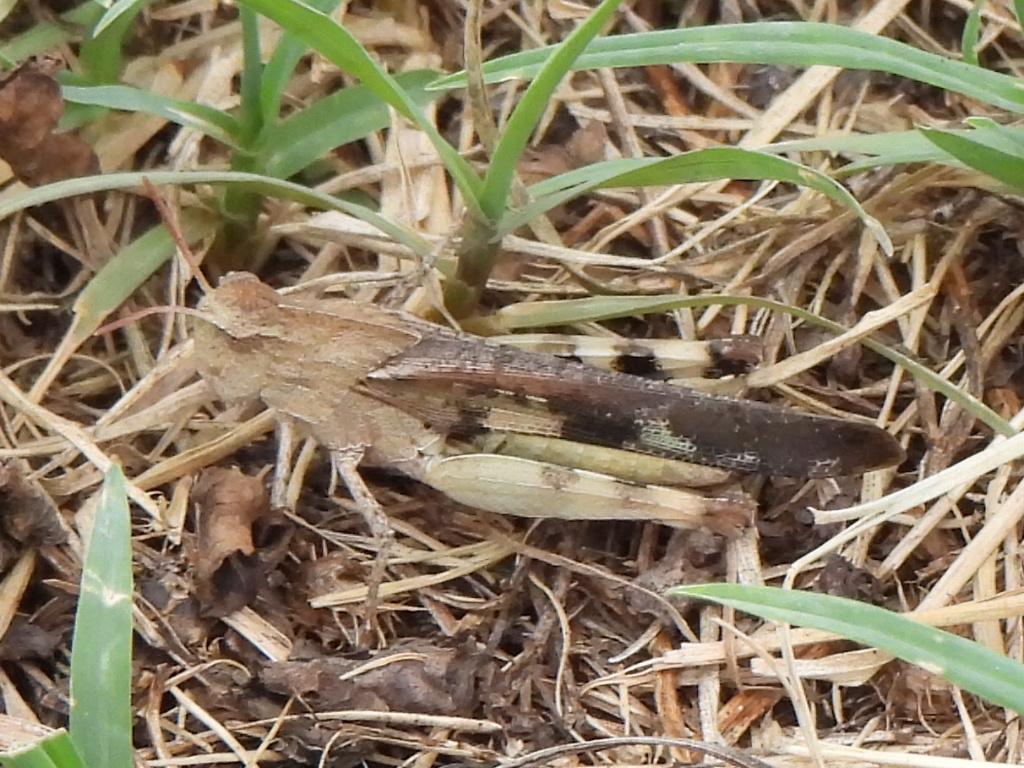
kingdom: Animalia
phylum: Arthropoda
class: Insecta
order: Orthoptera
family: Acrididae
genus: Chortophaga
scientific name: Chortophaga viridifasciata
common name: Green-striped grasshopper
